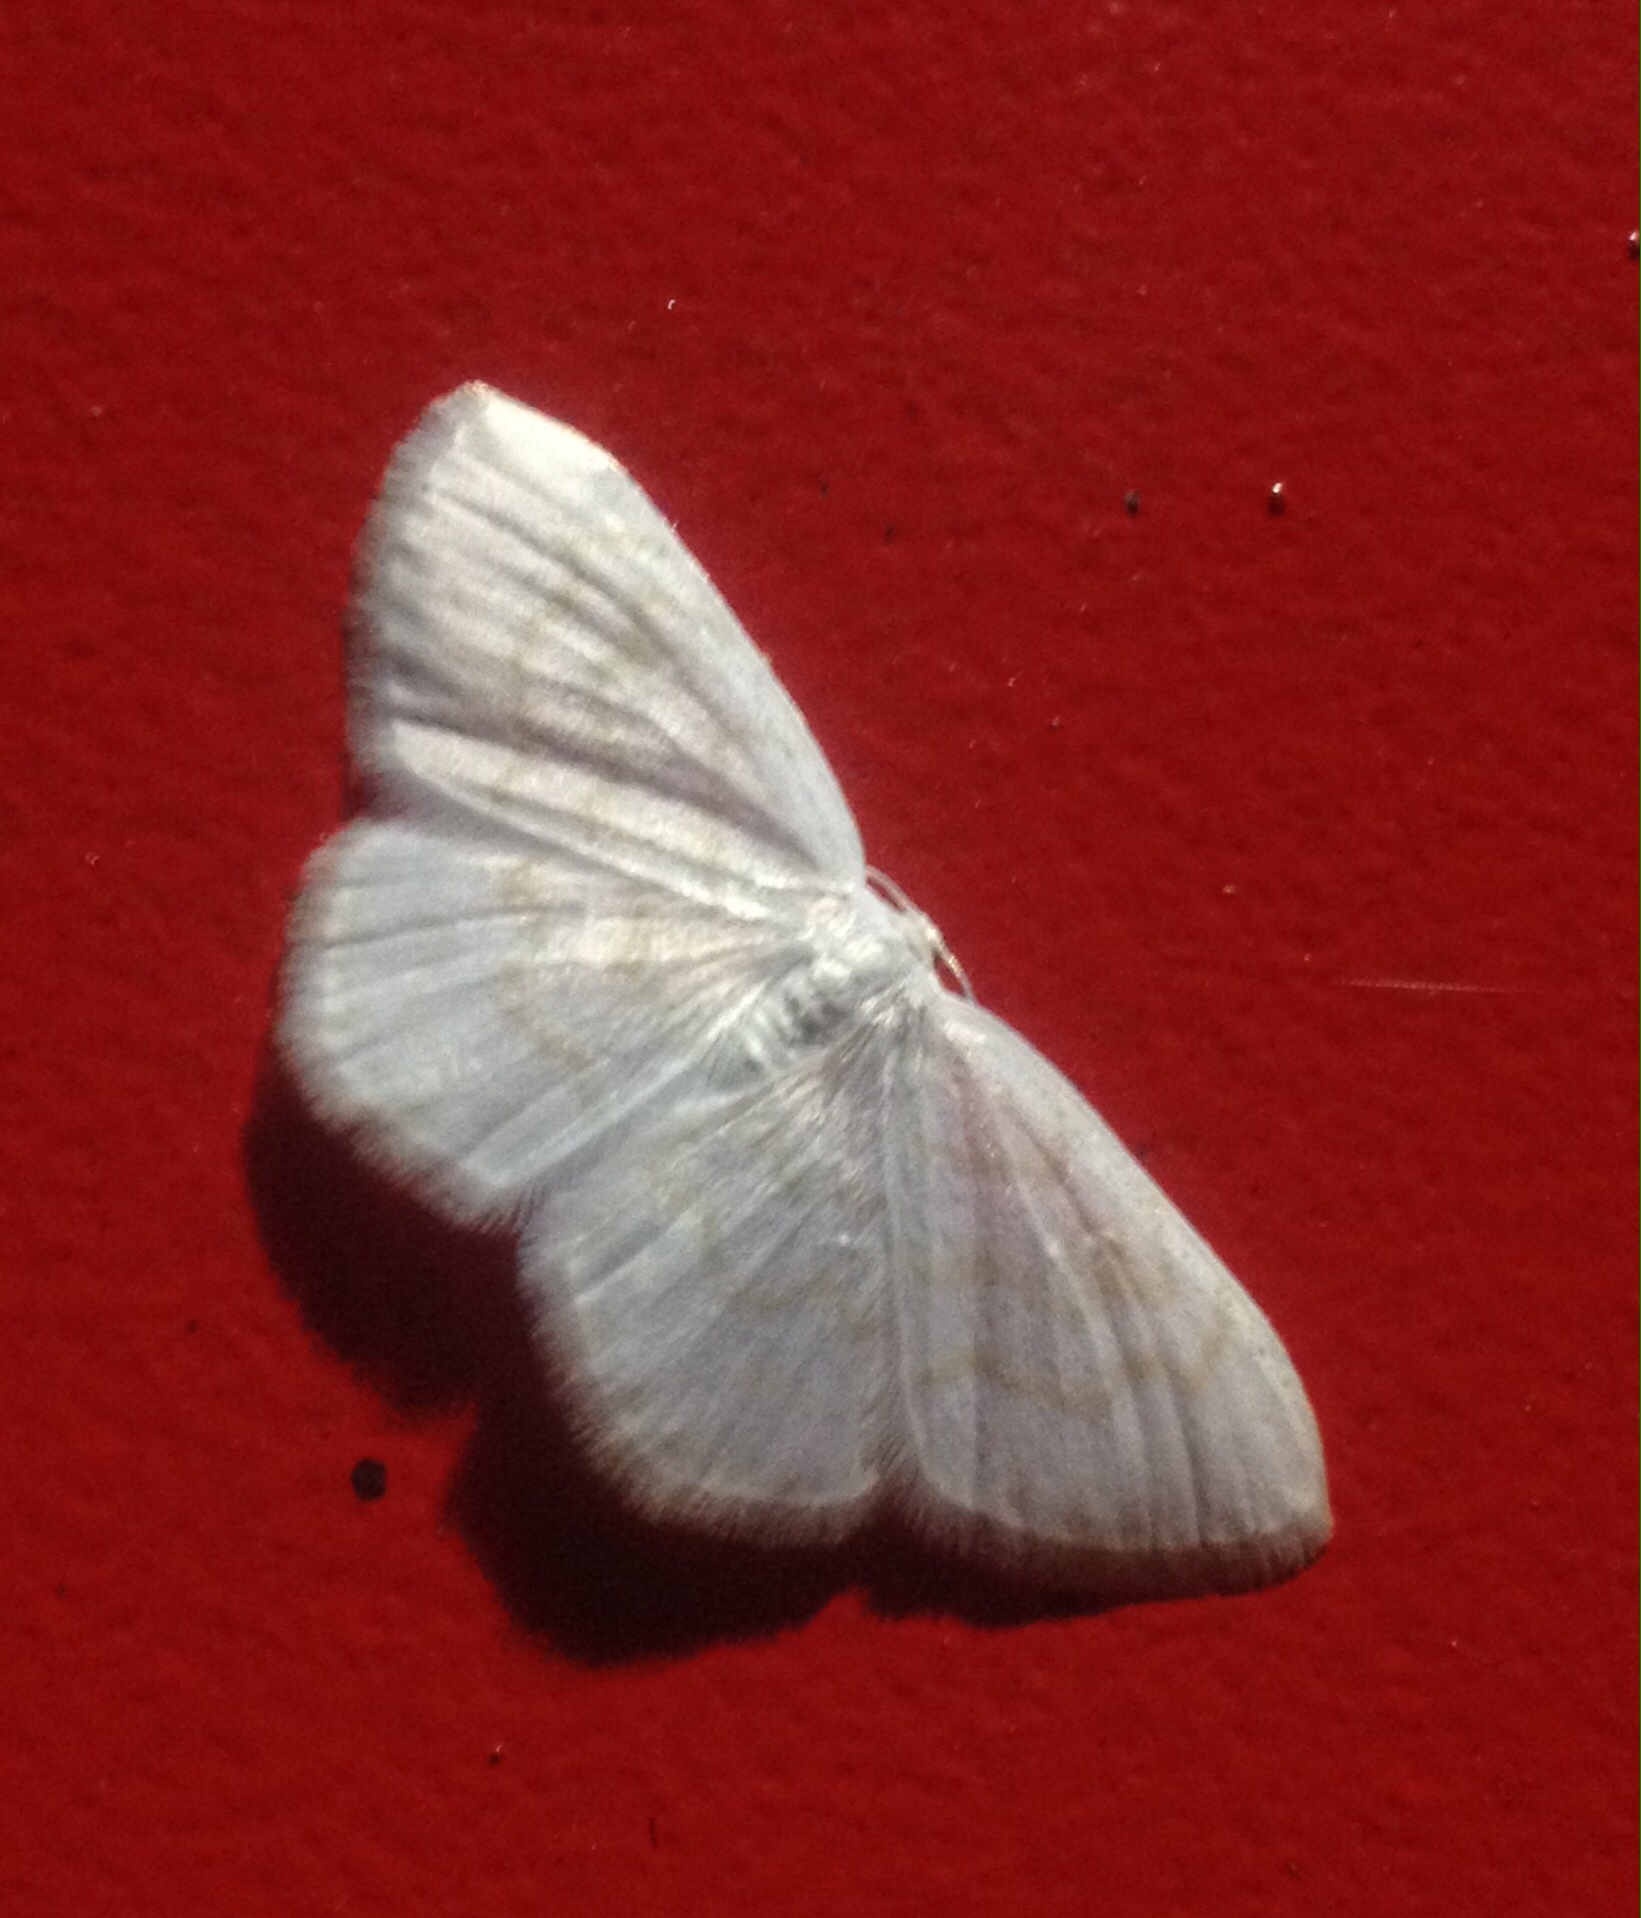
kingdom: Animalia
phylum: Arthropoda
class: Insecta
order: Lepidoptera
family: Geometridae
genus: Scopula
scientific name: Scopula nemoraria
